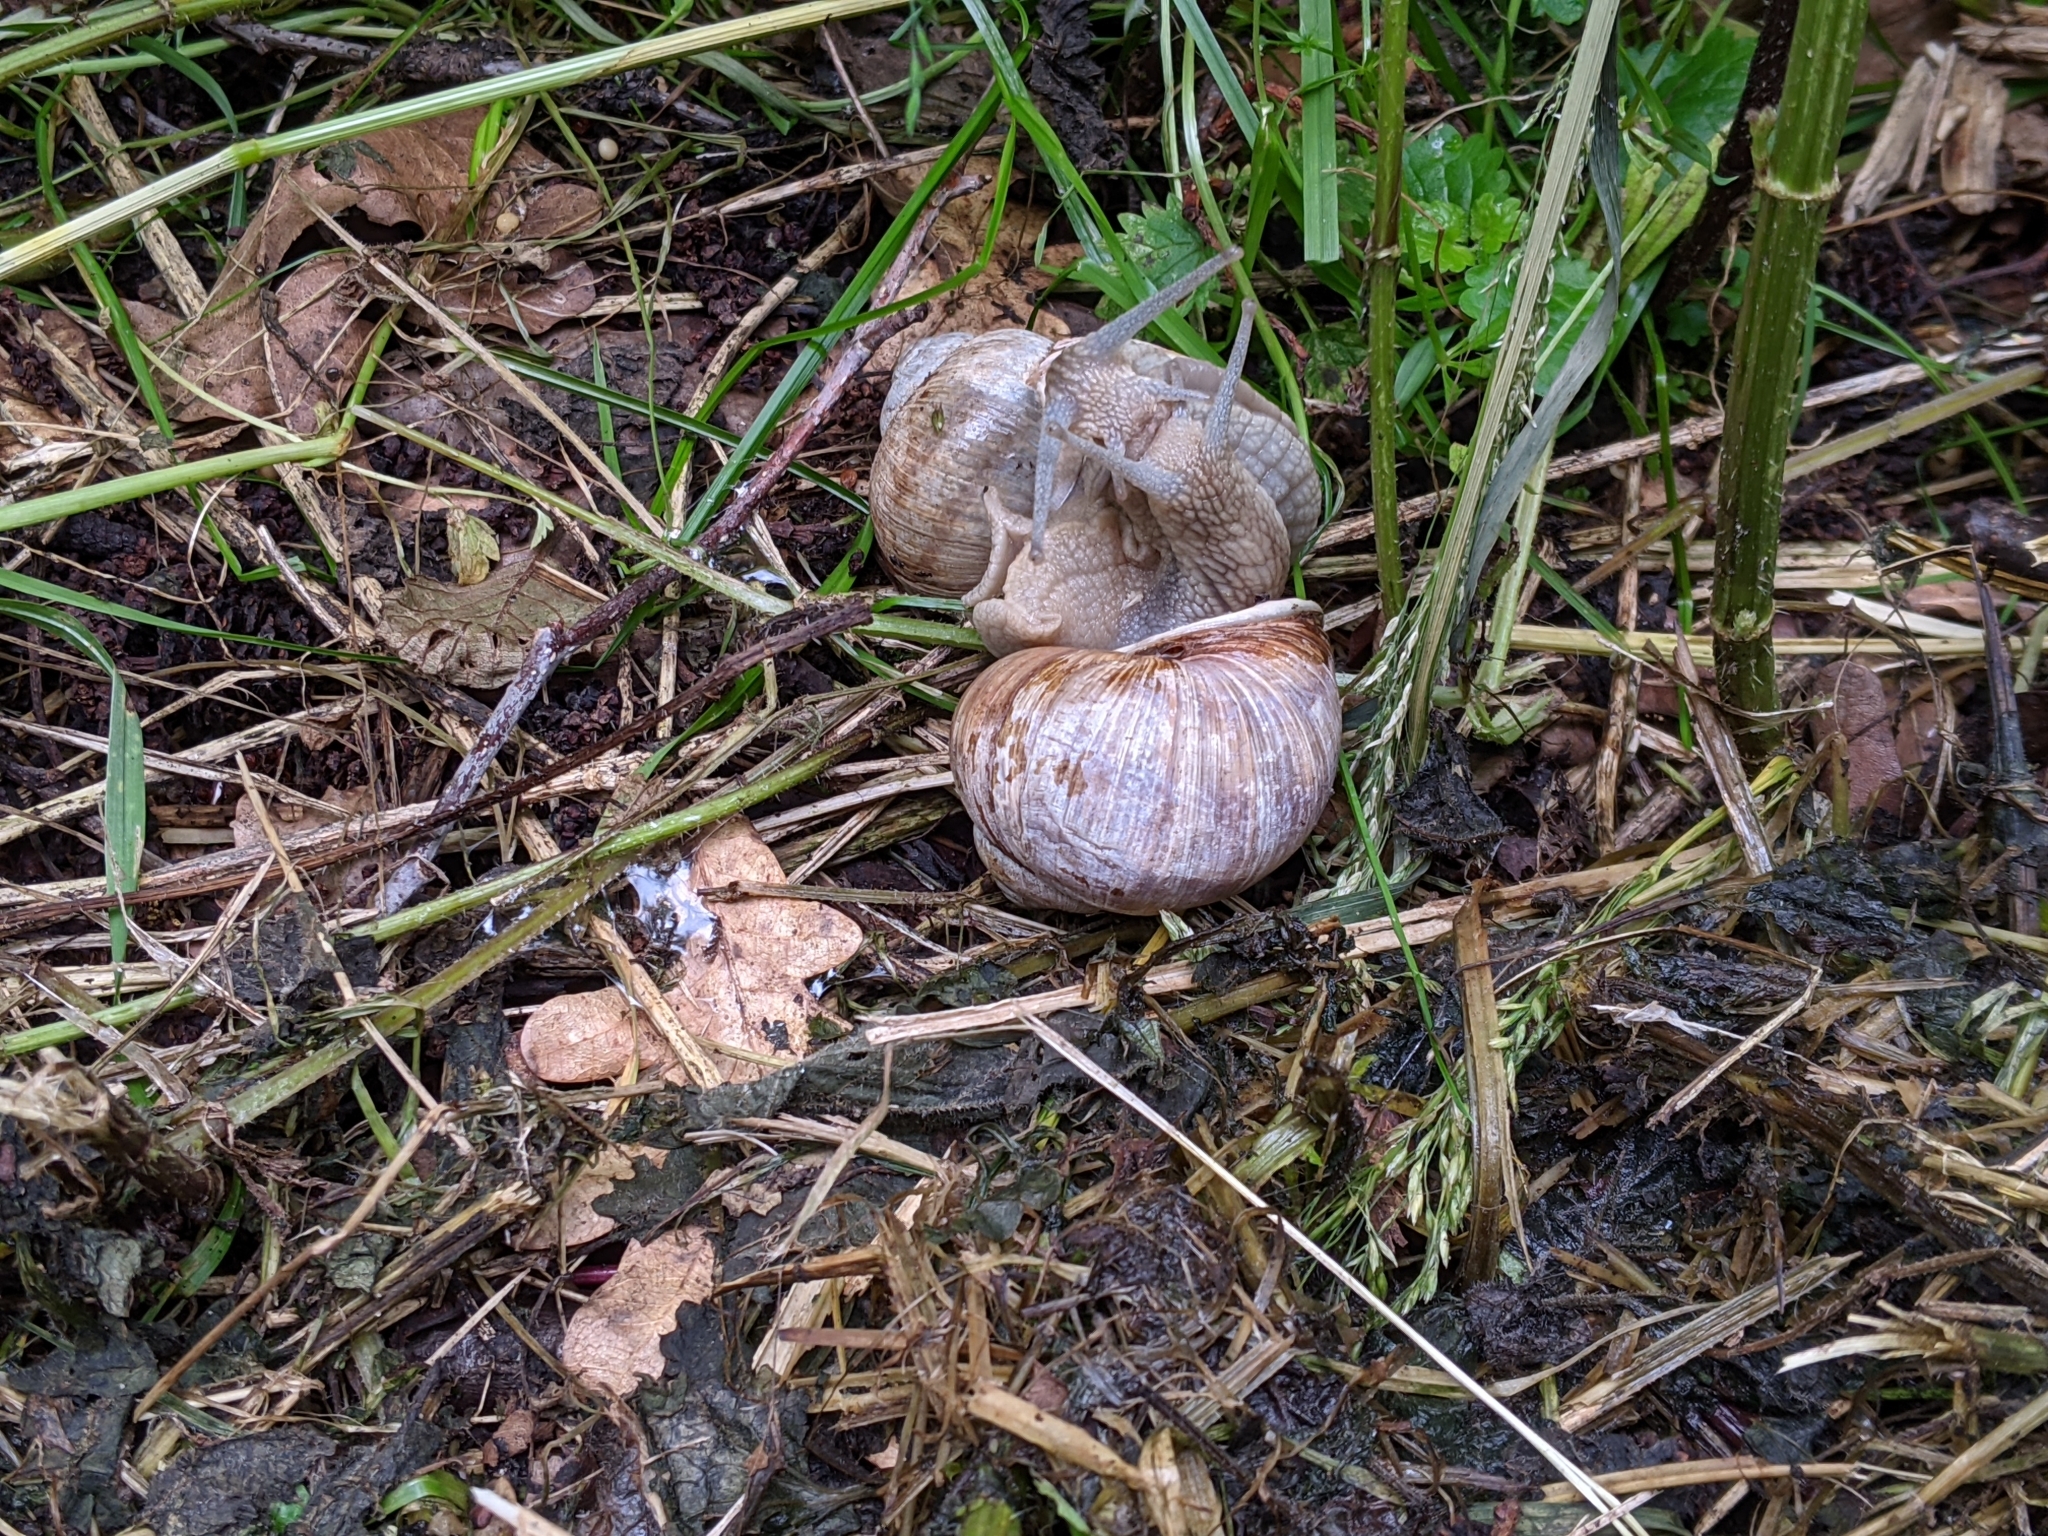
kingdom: Animalia
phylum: Mollusca
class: Gastropoda
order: Stylommatophora
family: Helicidae
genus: Helix
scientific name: Helix pomatia
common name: Roman snail
